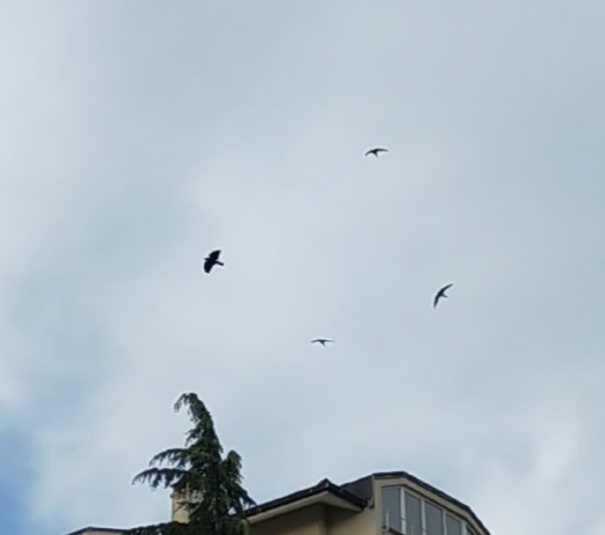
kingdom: Animalia
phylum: Chordata
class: Aves
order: Apodiformes
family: Apodidae
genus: Tachymarptis
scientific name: Tachymarptis melba
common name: Alpine swift
